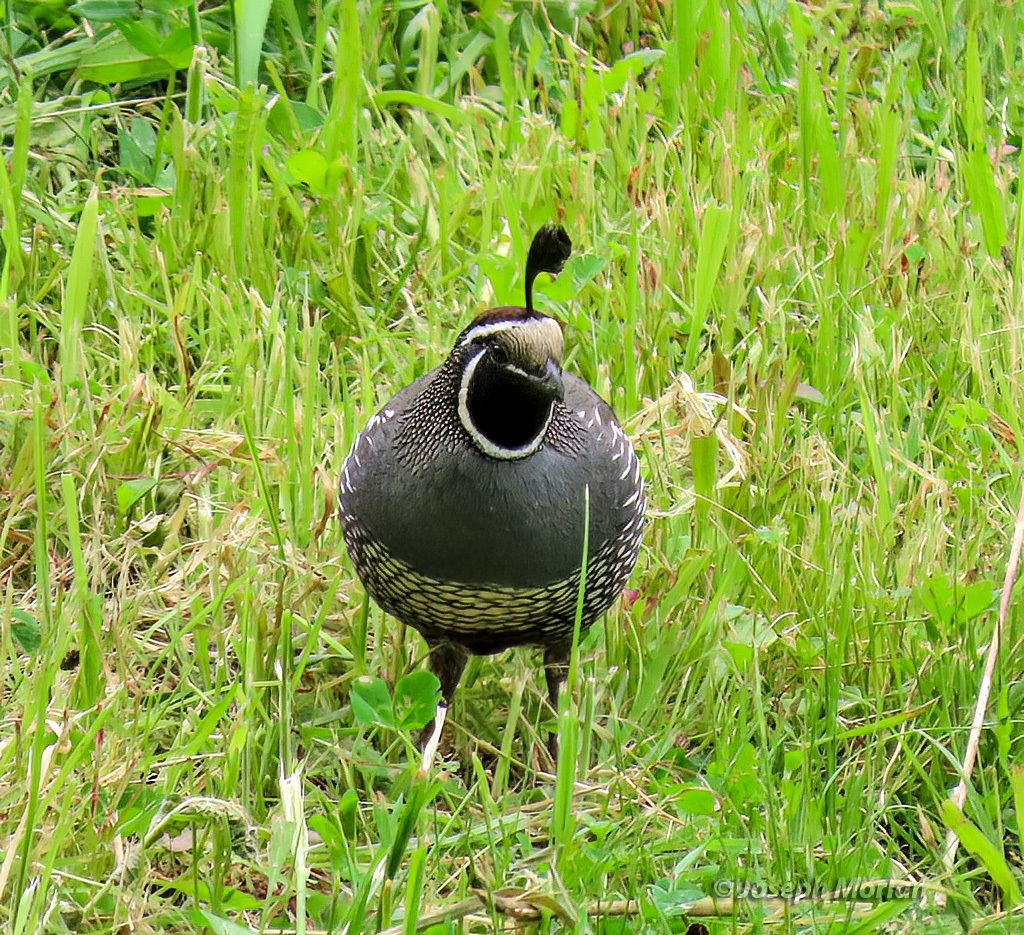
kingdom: Animalia
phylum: Chordata
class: Aves
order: Galliformes
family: Odontophoridae
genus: Callipepla
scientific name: Callipepla californica
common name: California quail
